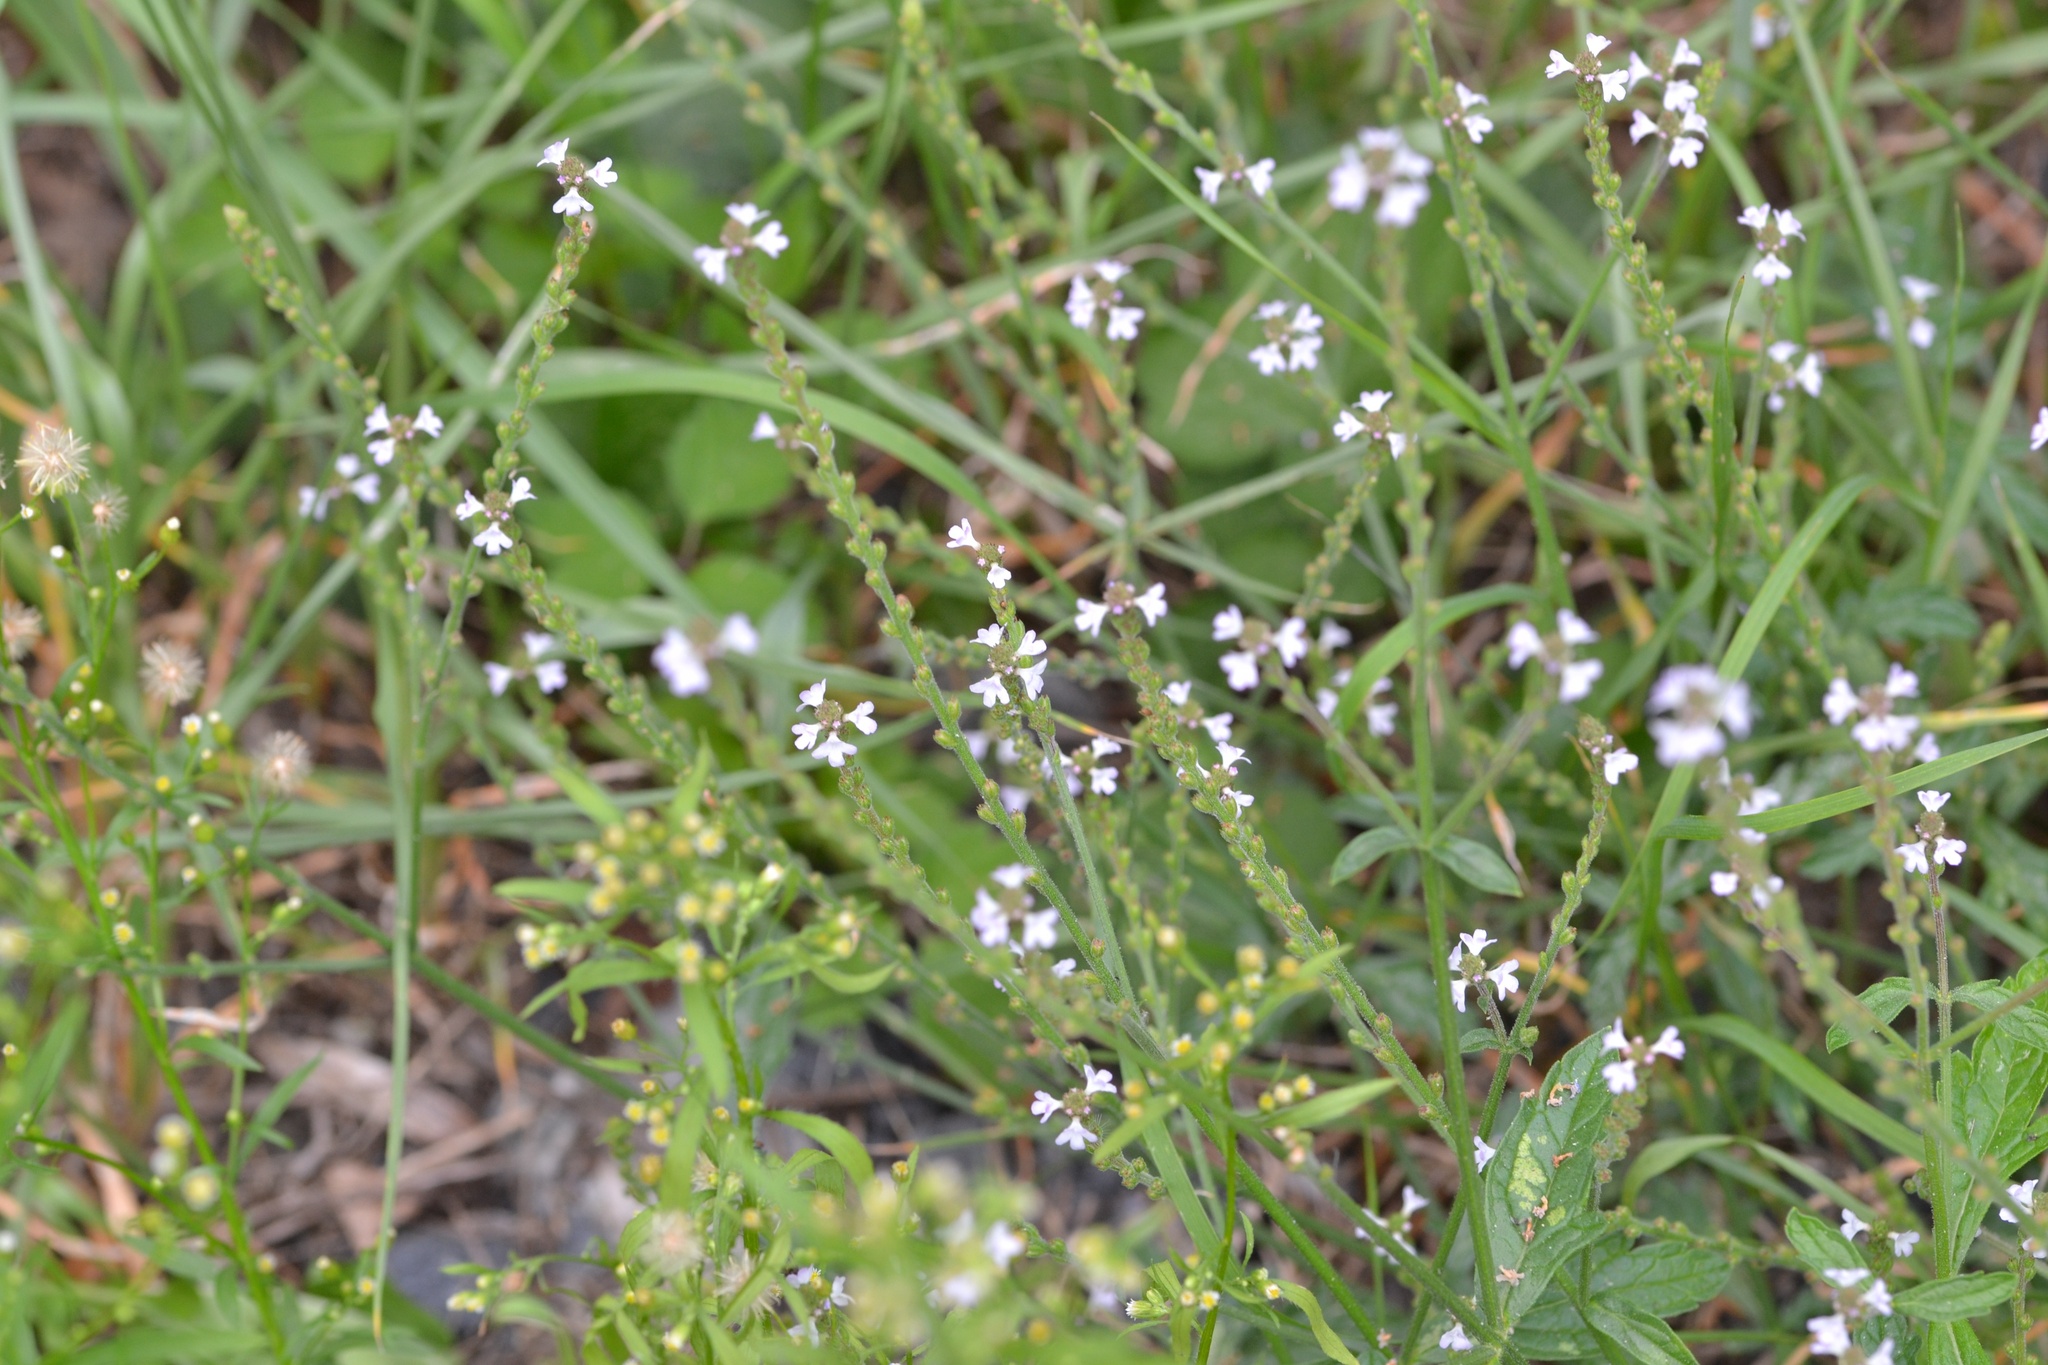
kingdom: Plantae
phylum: Tracheophyta
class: Magnoliopsida
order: Lamiales
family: Verbenaceae
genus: Verbena
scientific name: Verbena officinalis
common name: Vervain
